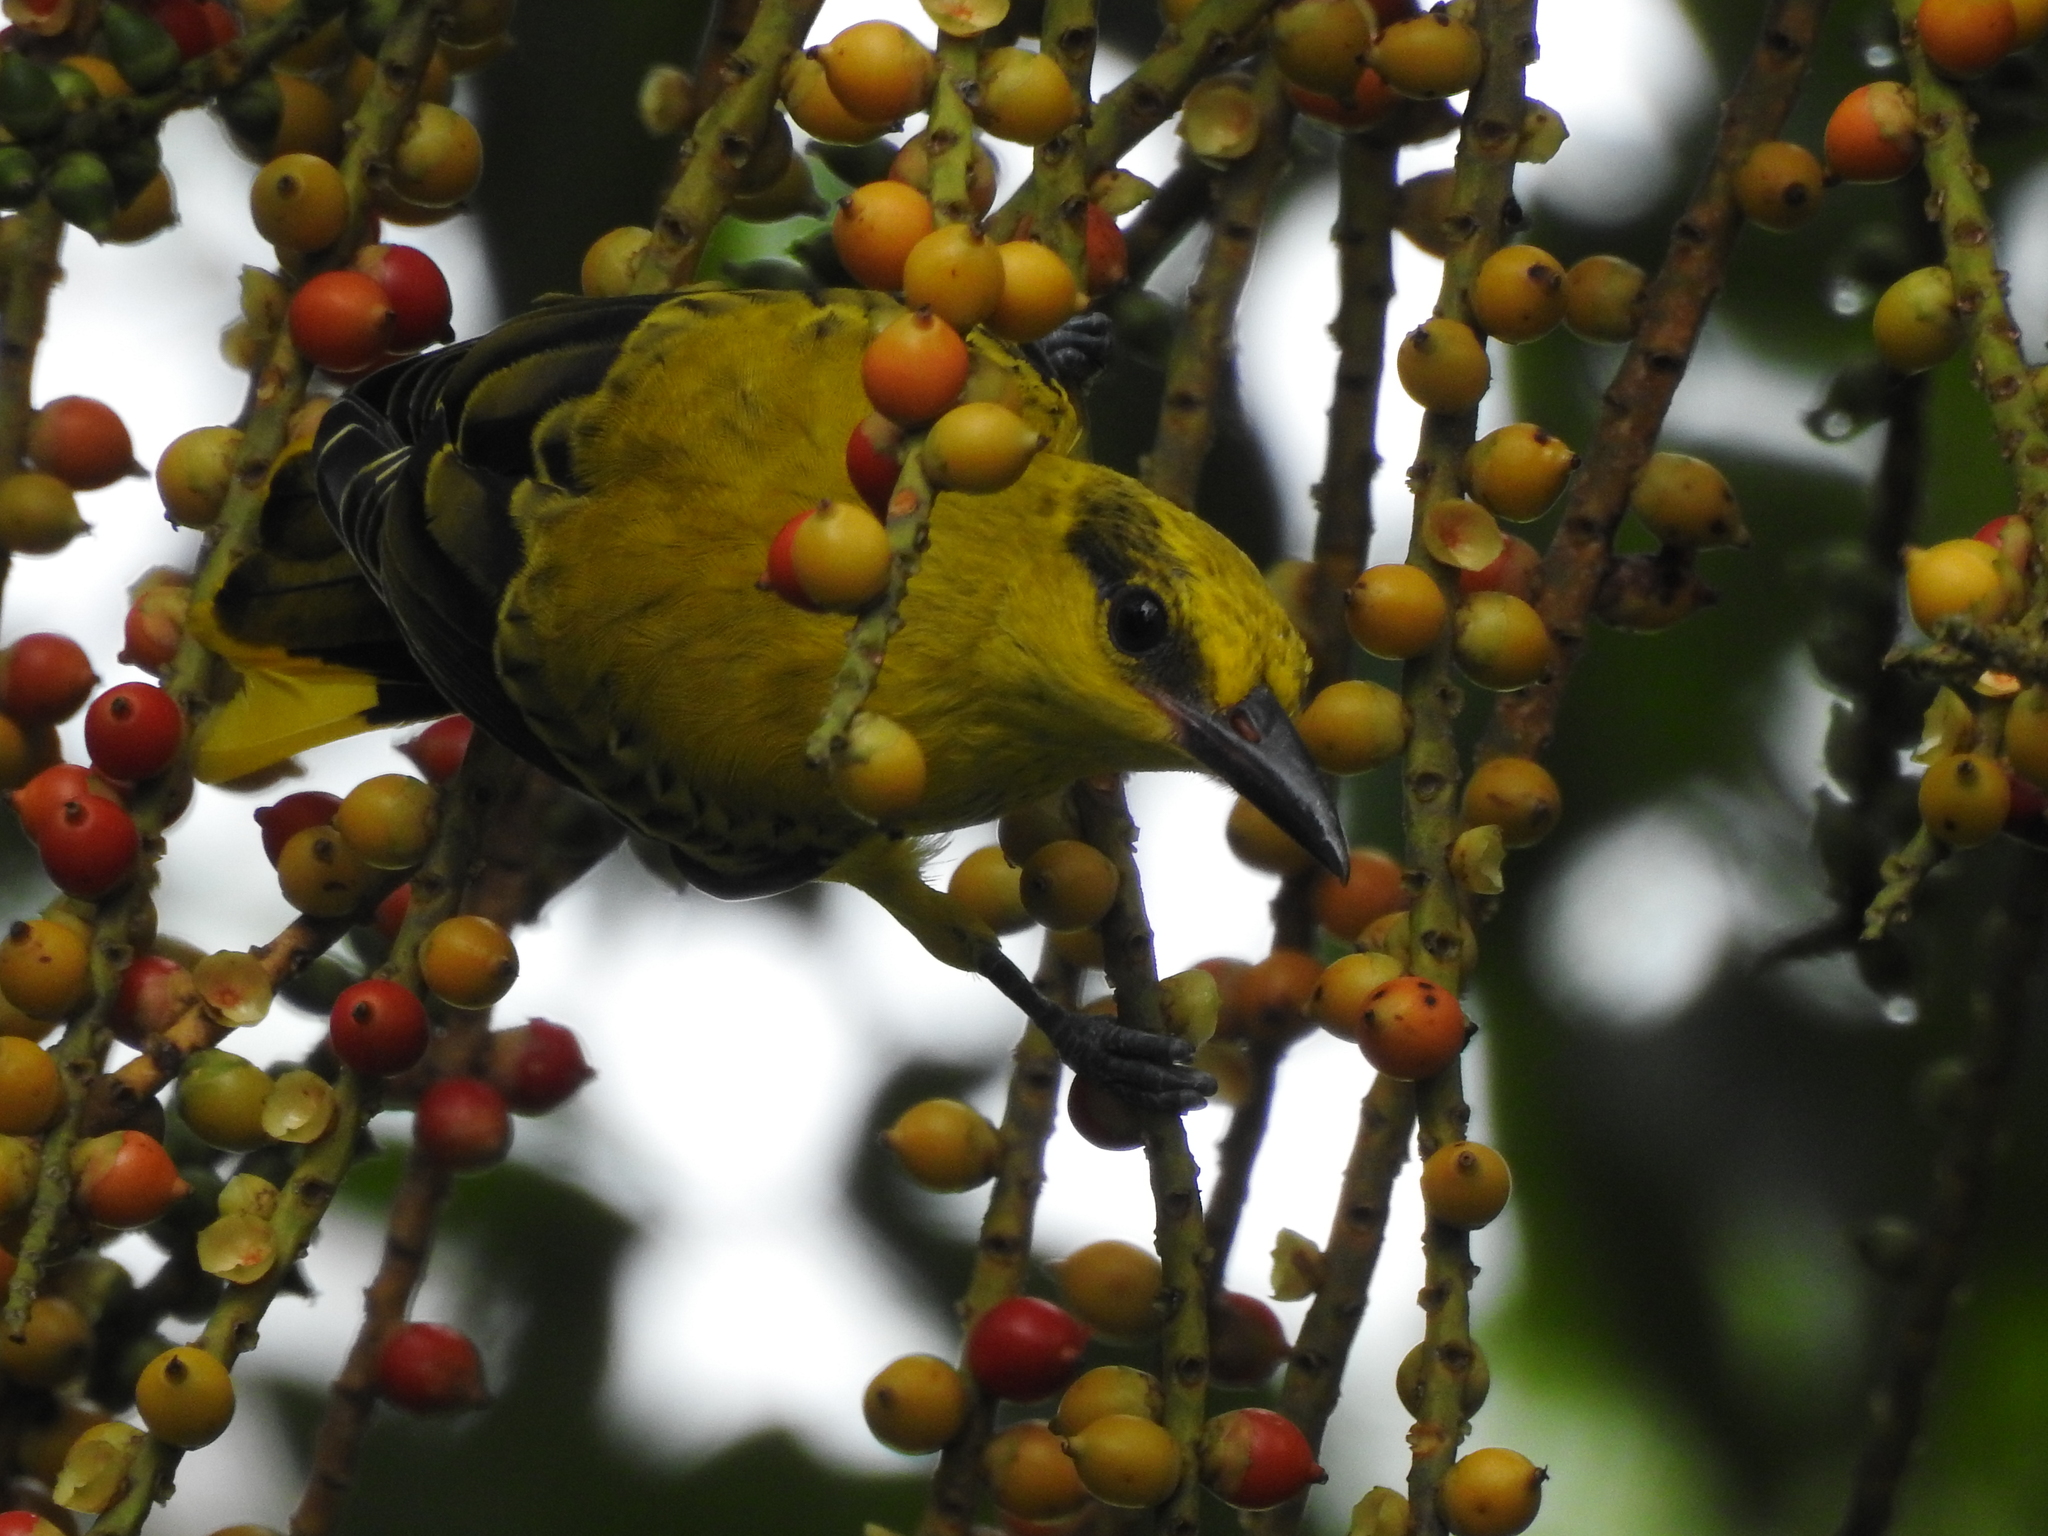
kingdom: Animalia
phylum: Chordata
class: Aves
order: Passeriformes
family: Oriolidae
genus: Oriolus
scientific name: Oriolus chinensis
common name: Black-naped oriole
